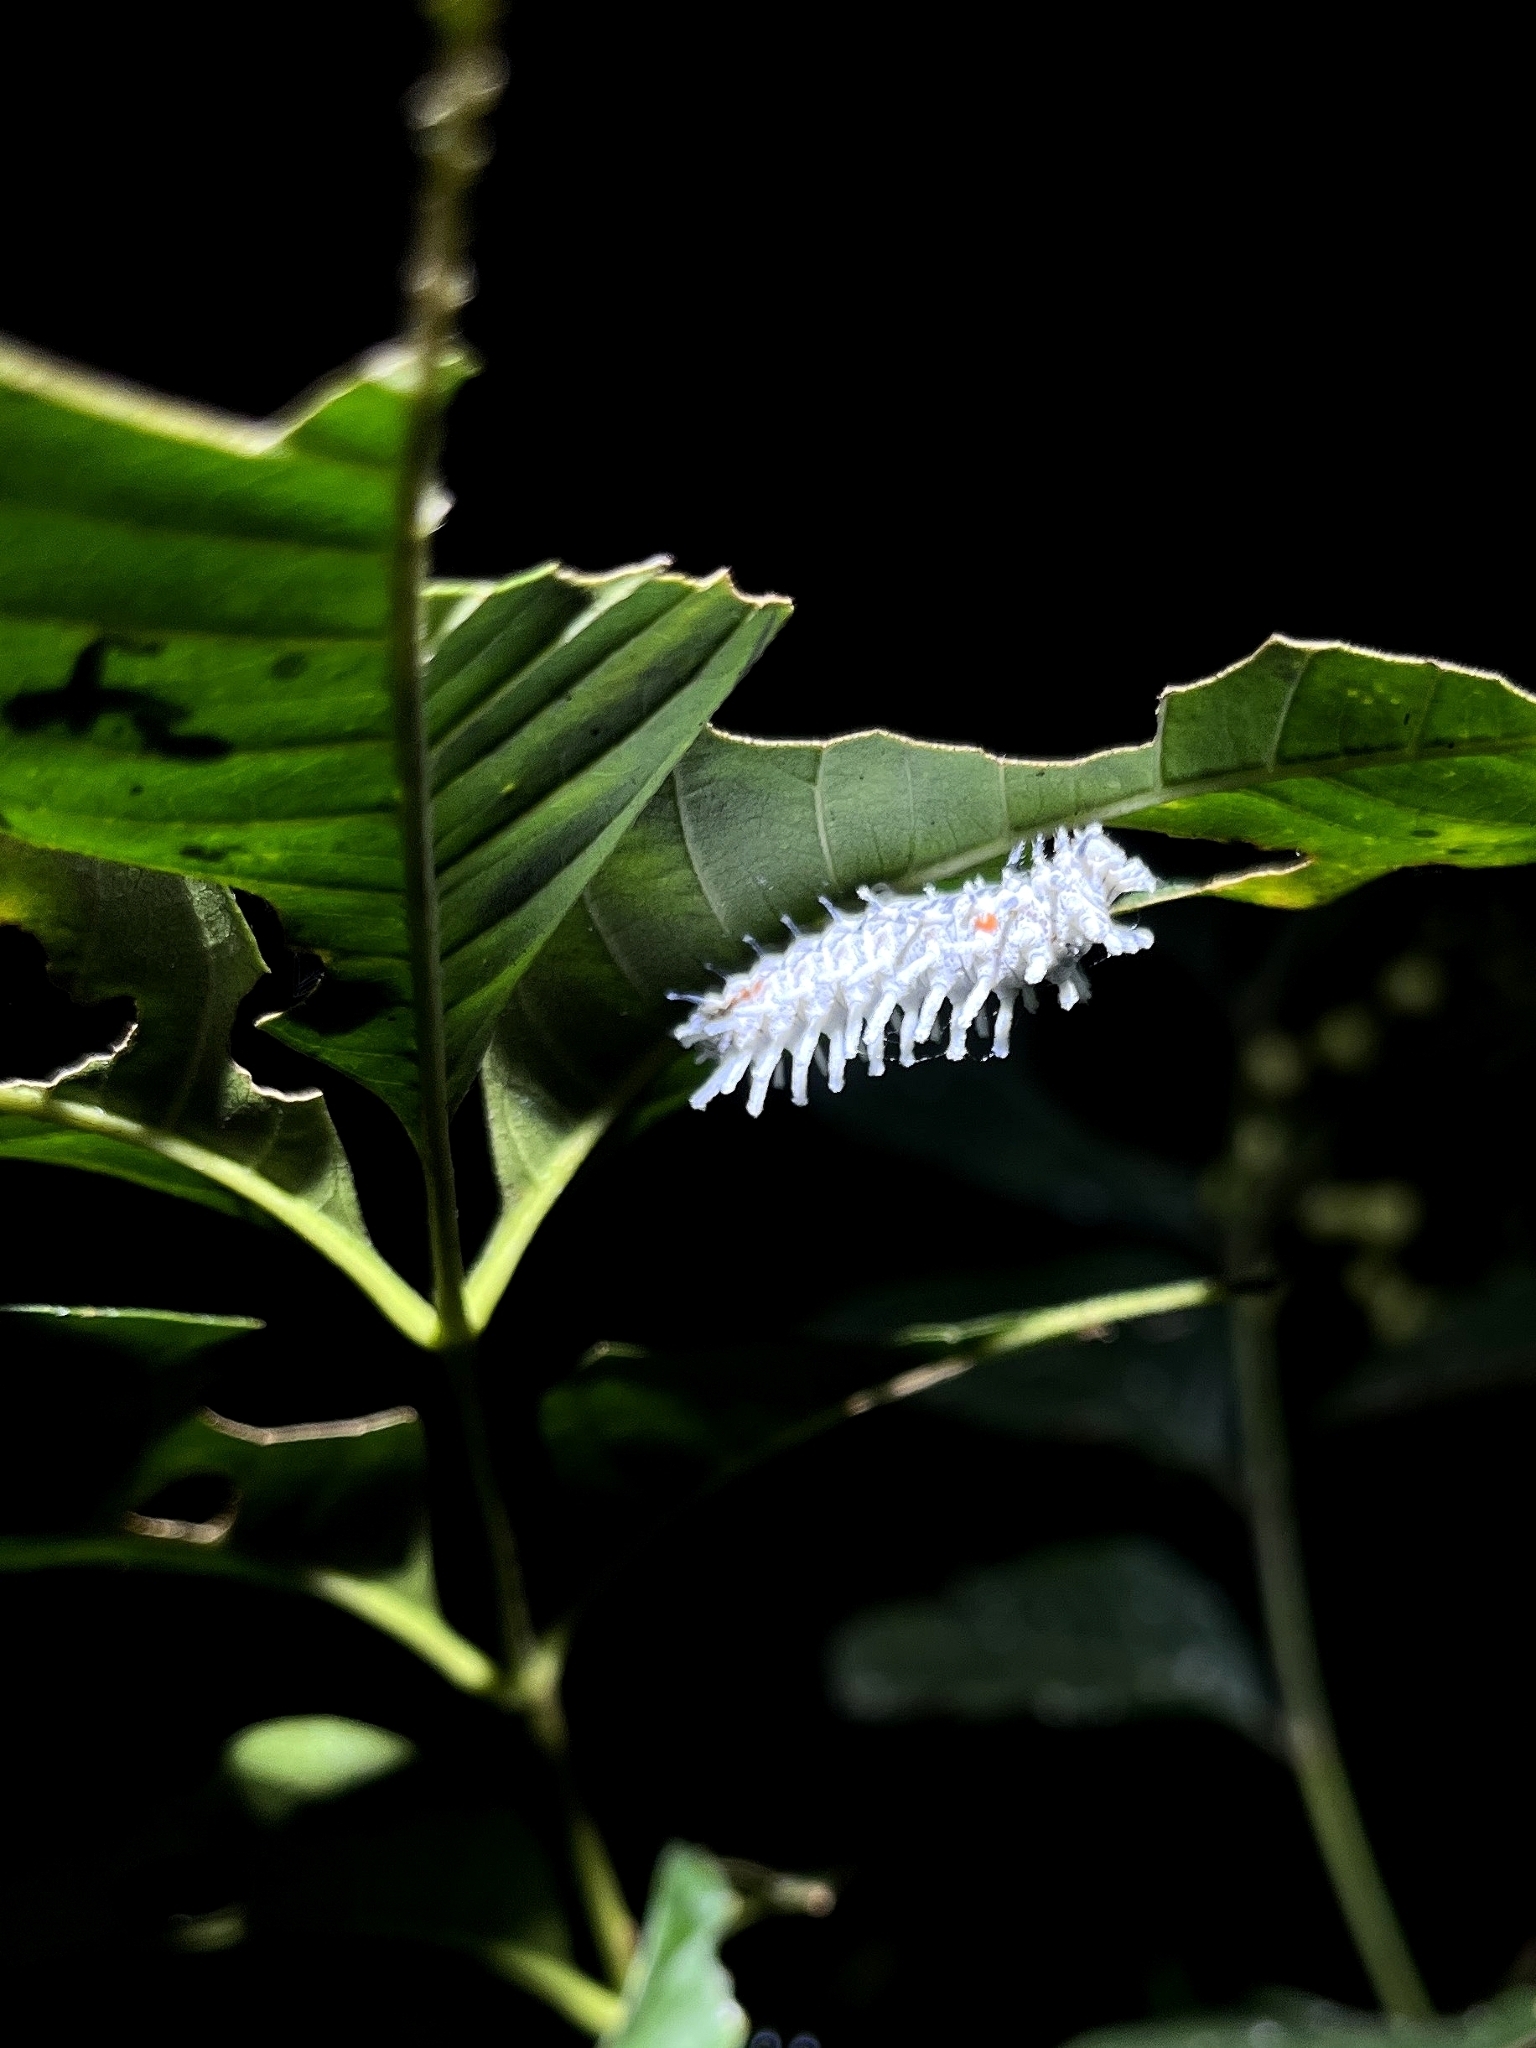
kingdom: Animalia
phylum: Arthropoda
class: Insecta
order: Lepidoptera
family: Saturniidae
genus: Attacus
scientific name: Attacus taprobanis
